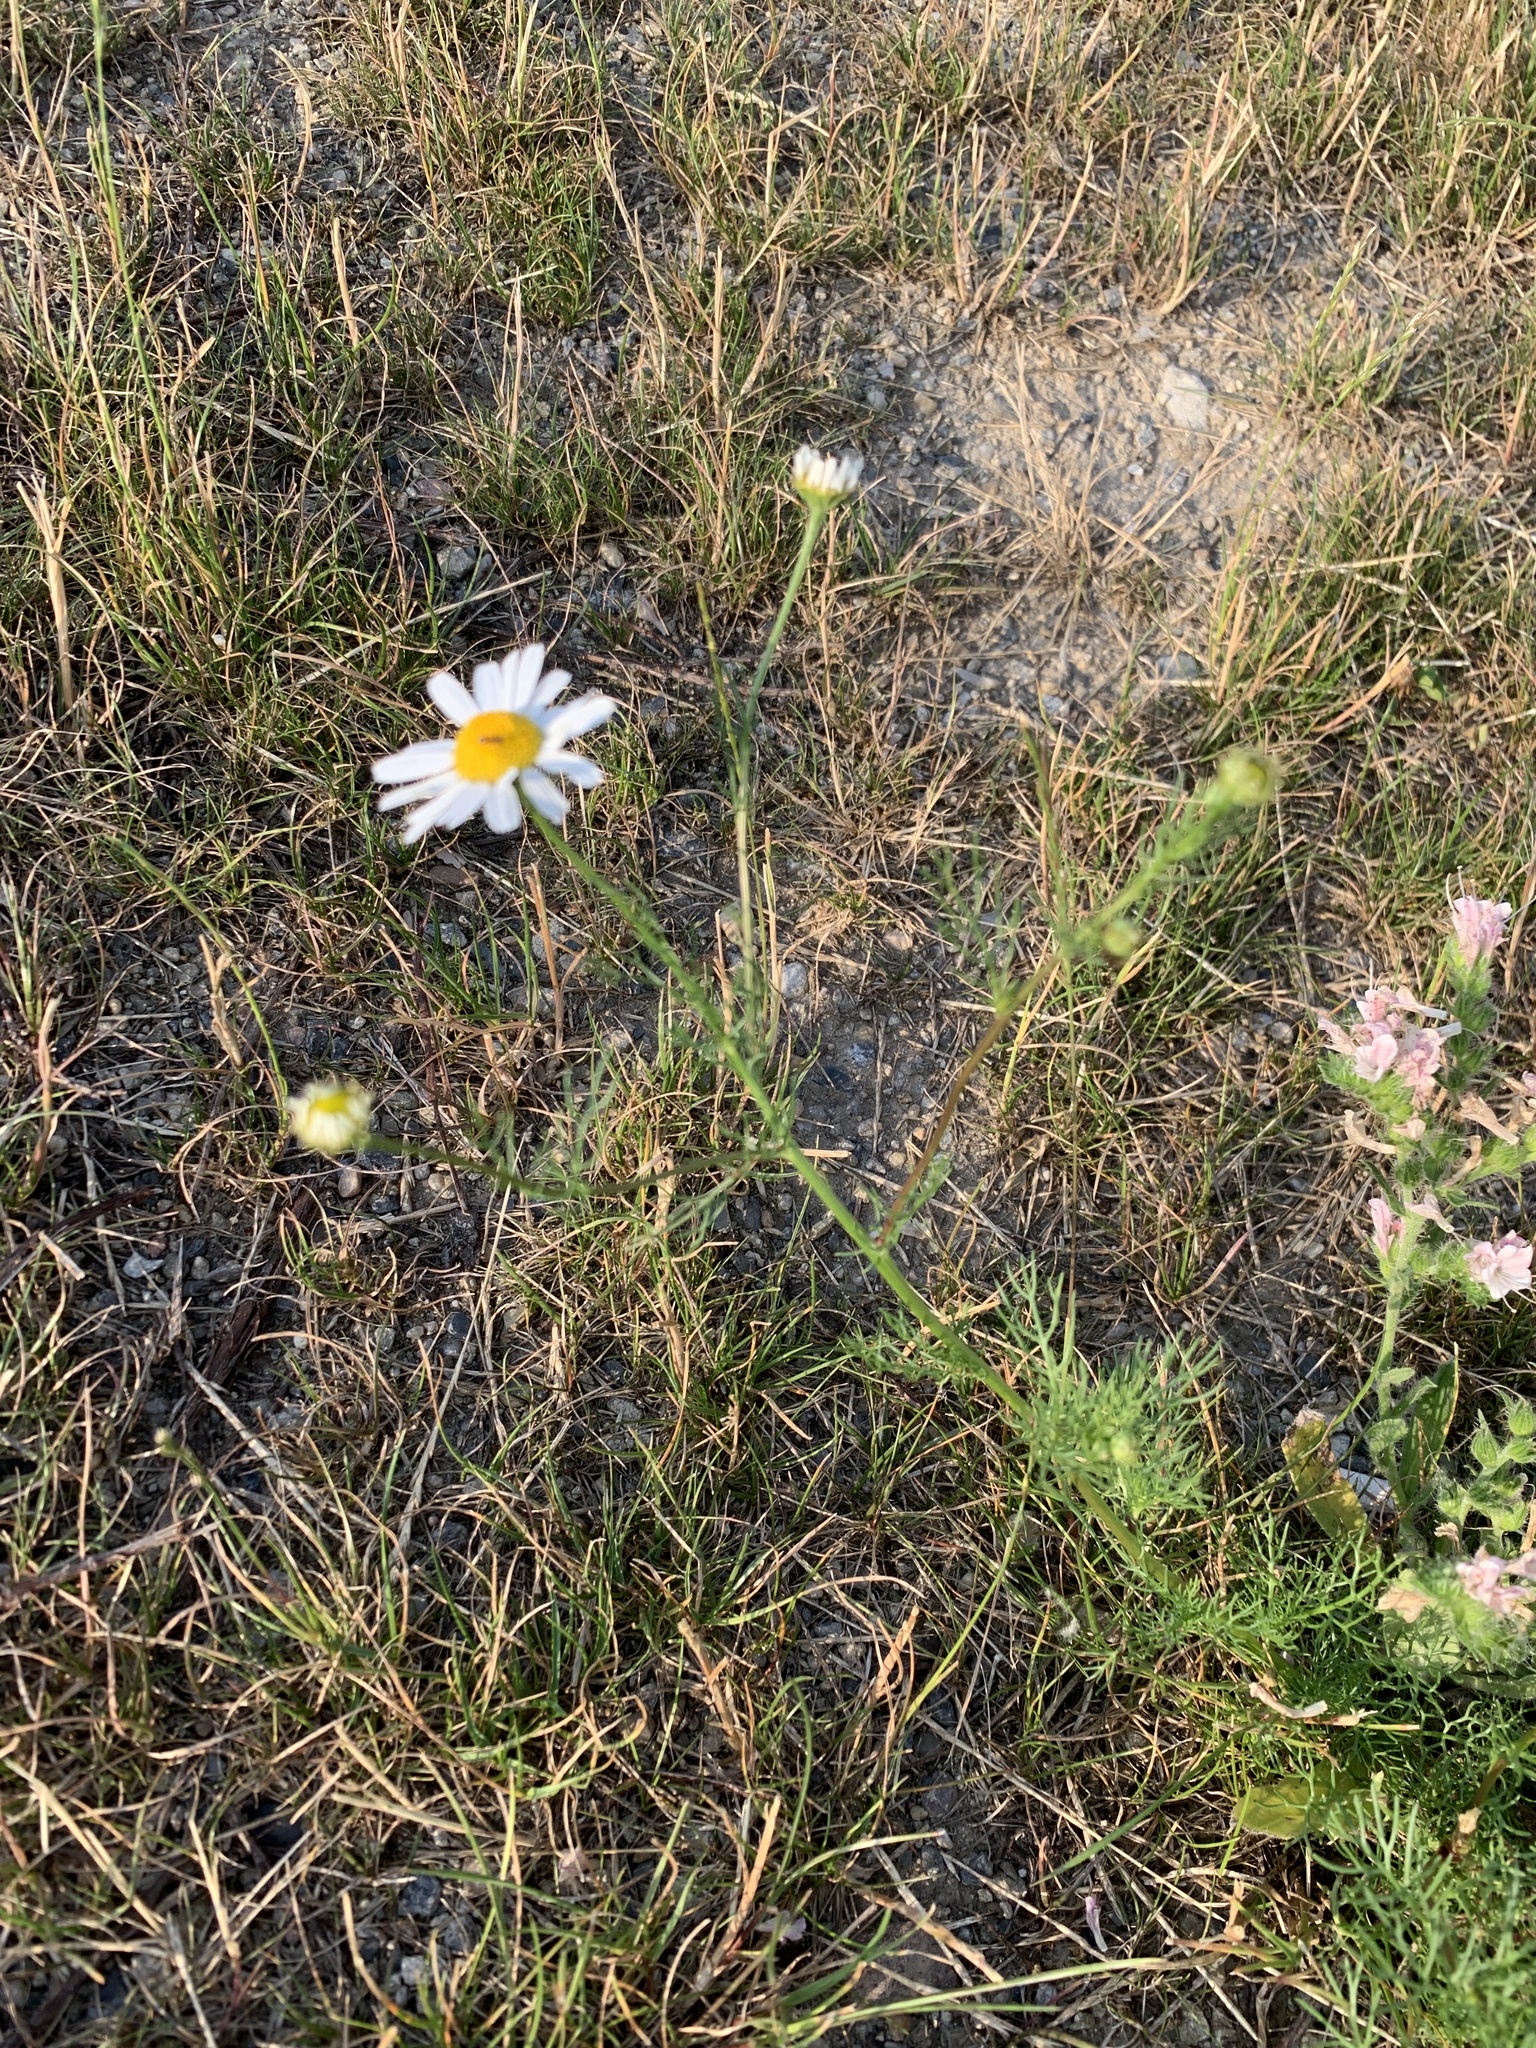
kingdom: Plantae
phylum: Tracheophyta
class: Magnoliopsida
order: Asterales
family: Asteraceae
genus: Tripleurospermum
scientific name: Tripleurospermum inodorum
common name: Scentless mayweed
